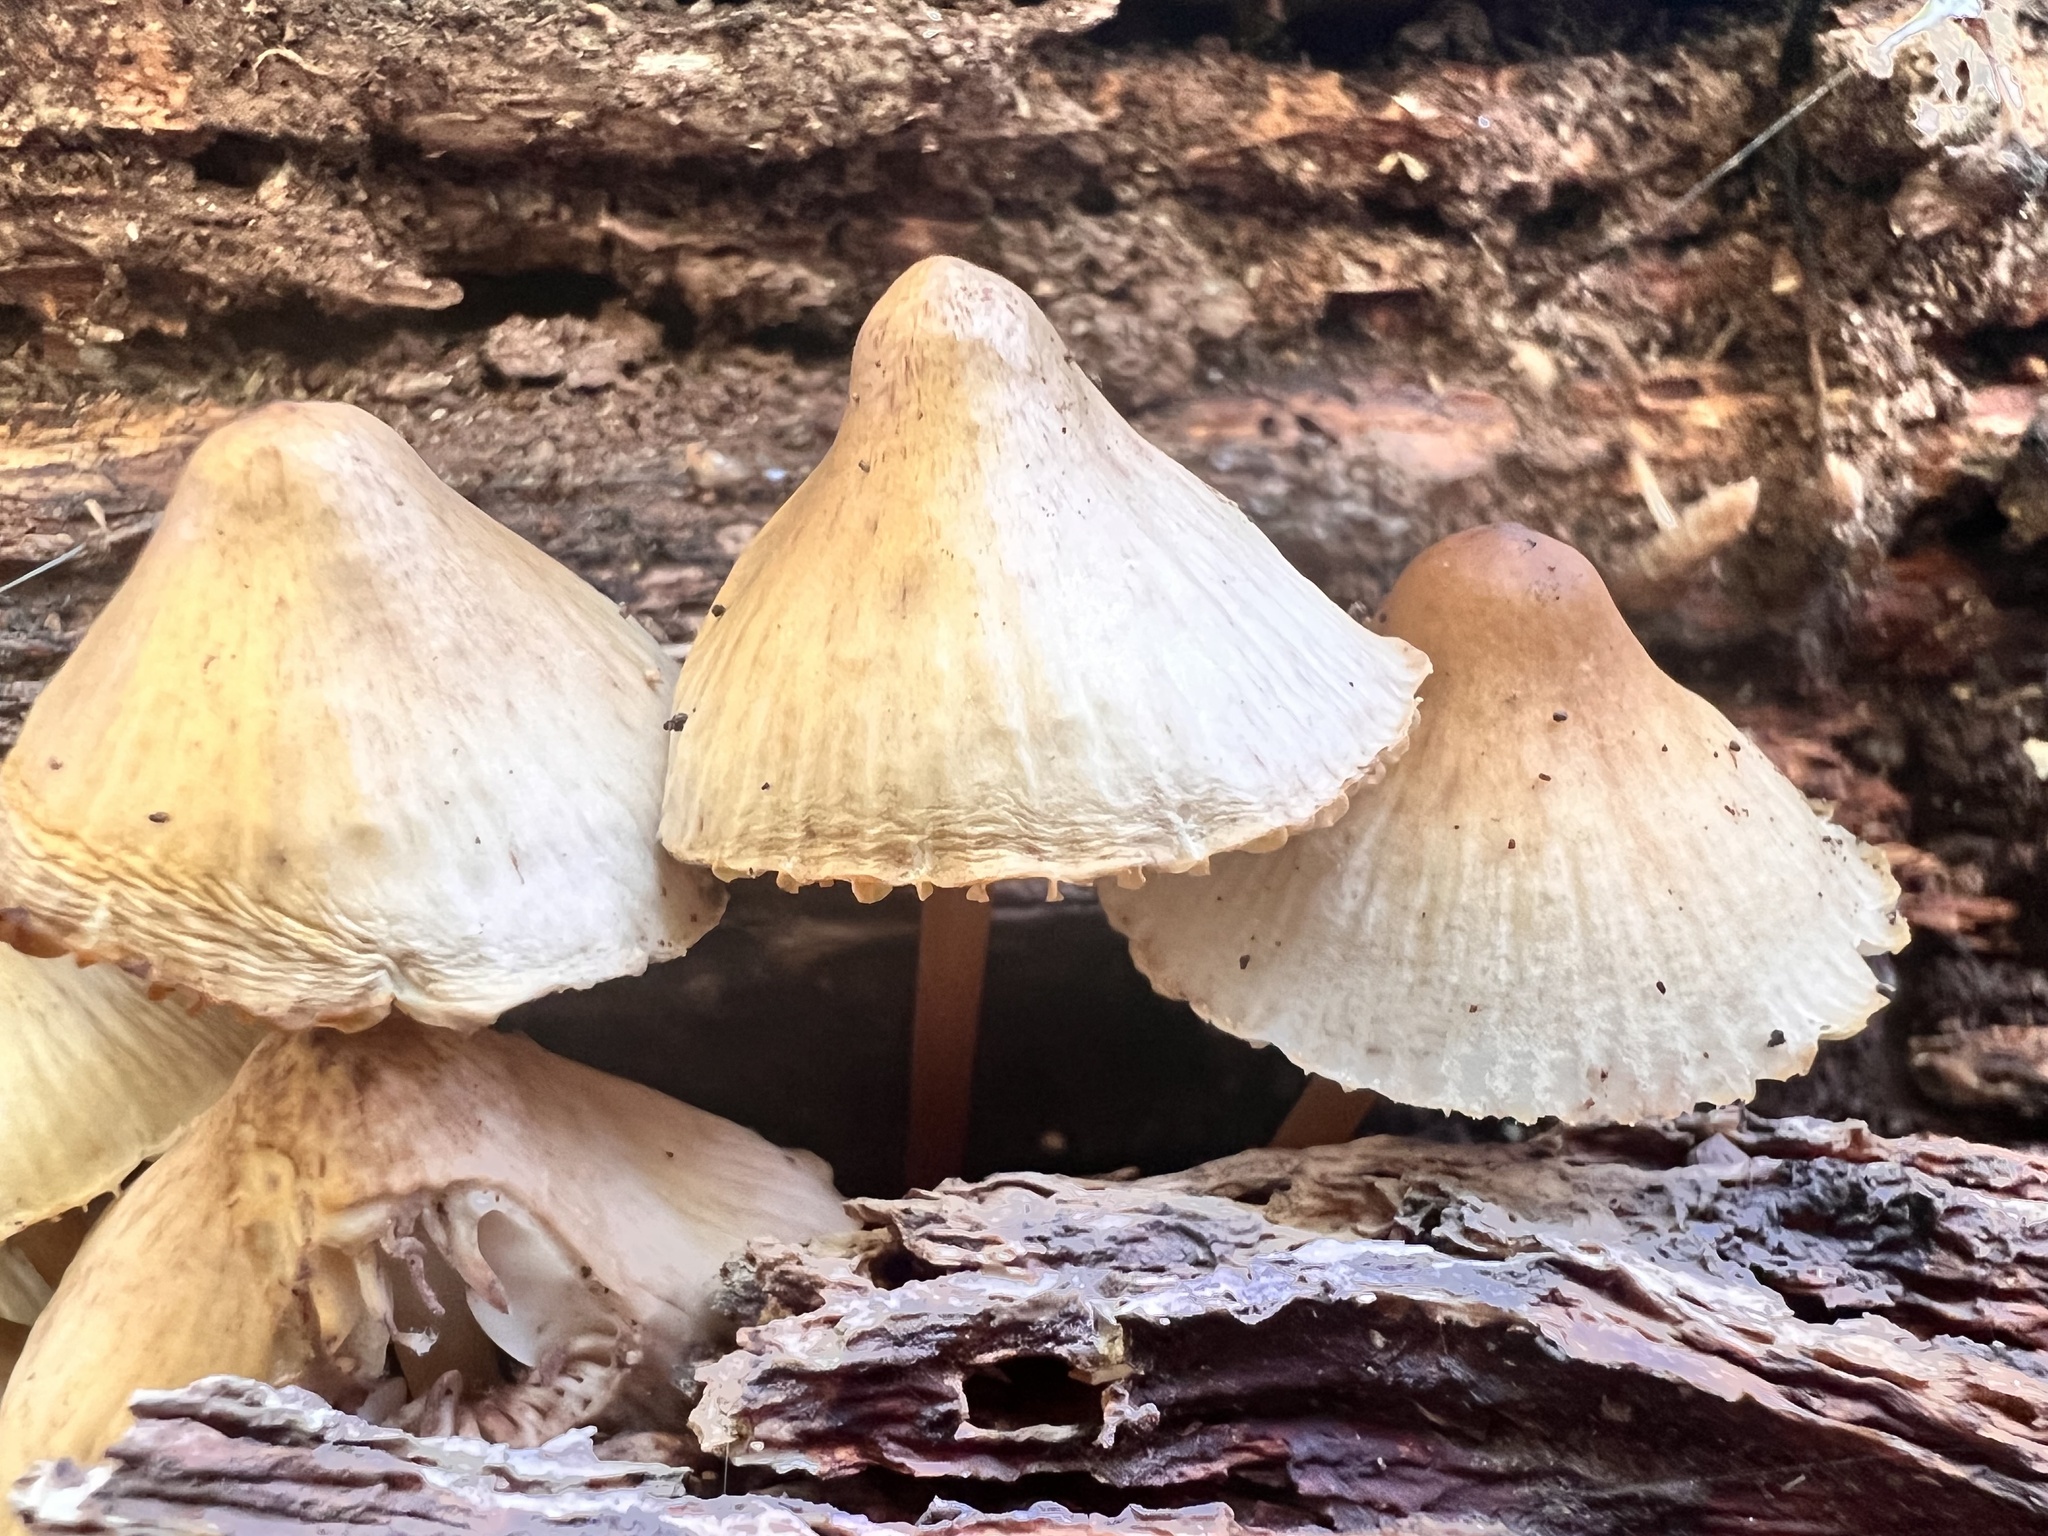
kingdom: Fungi
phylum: Basidiomycota
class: Agaricomycetes
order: Agaricales
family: Mycenaceae
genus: Mycena
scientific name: Mycena inclinata
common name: Clustered bonnet
